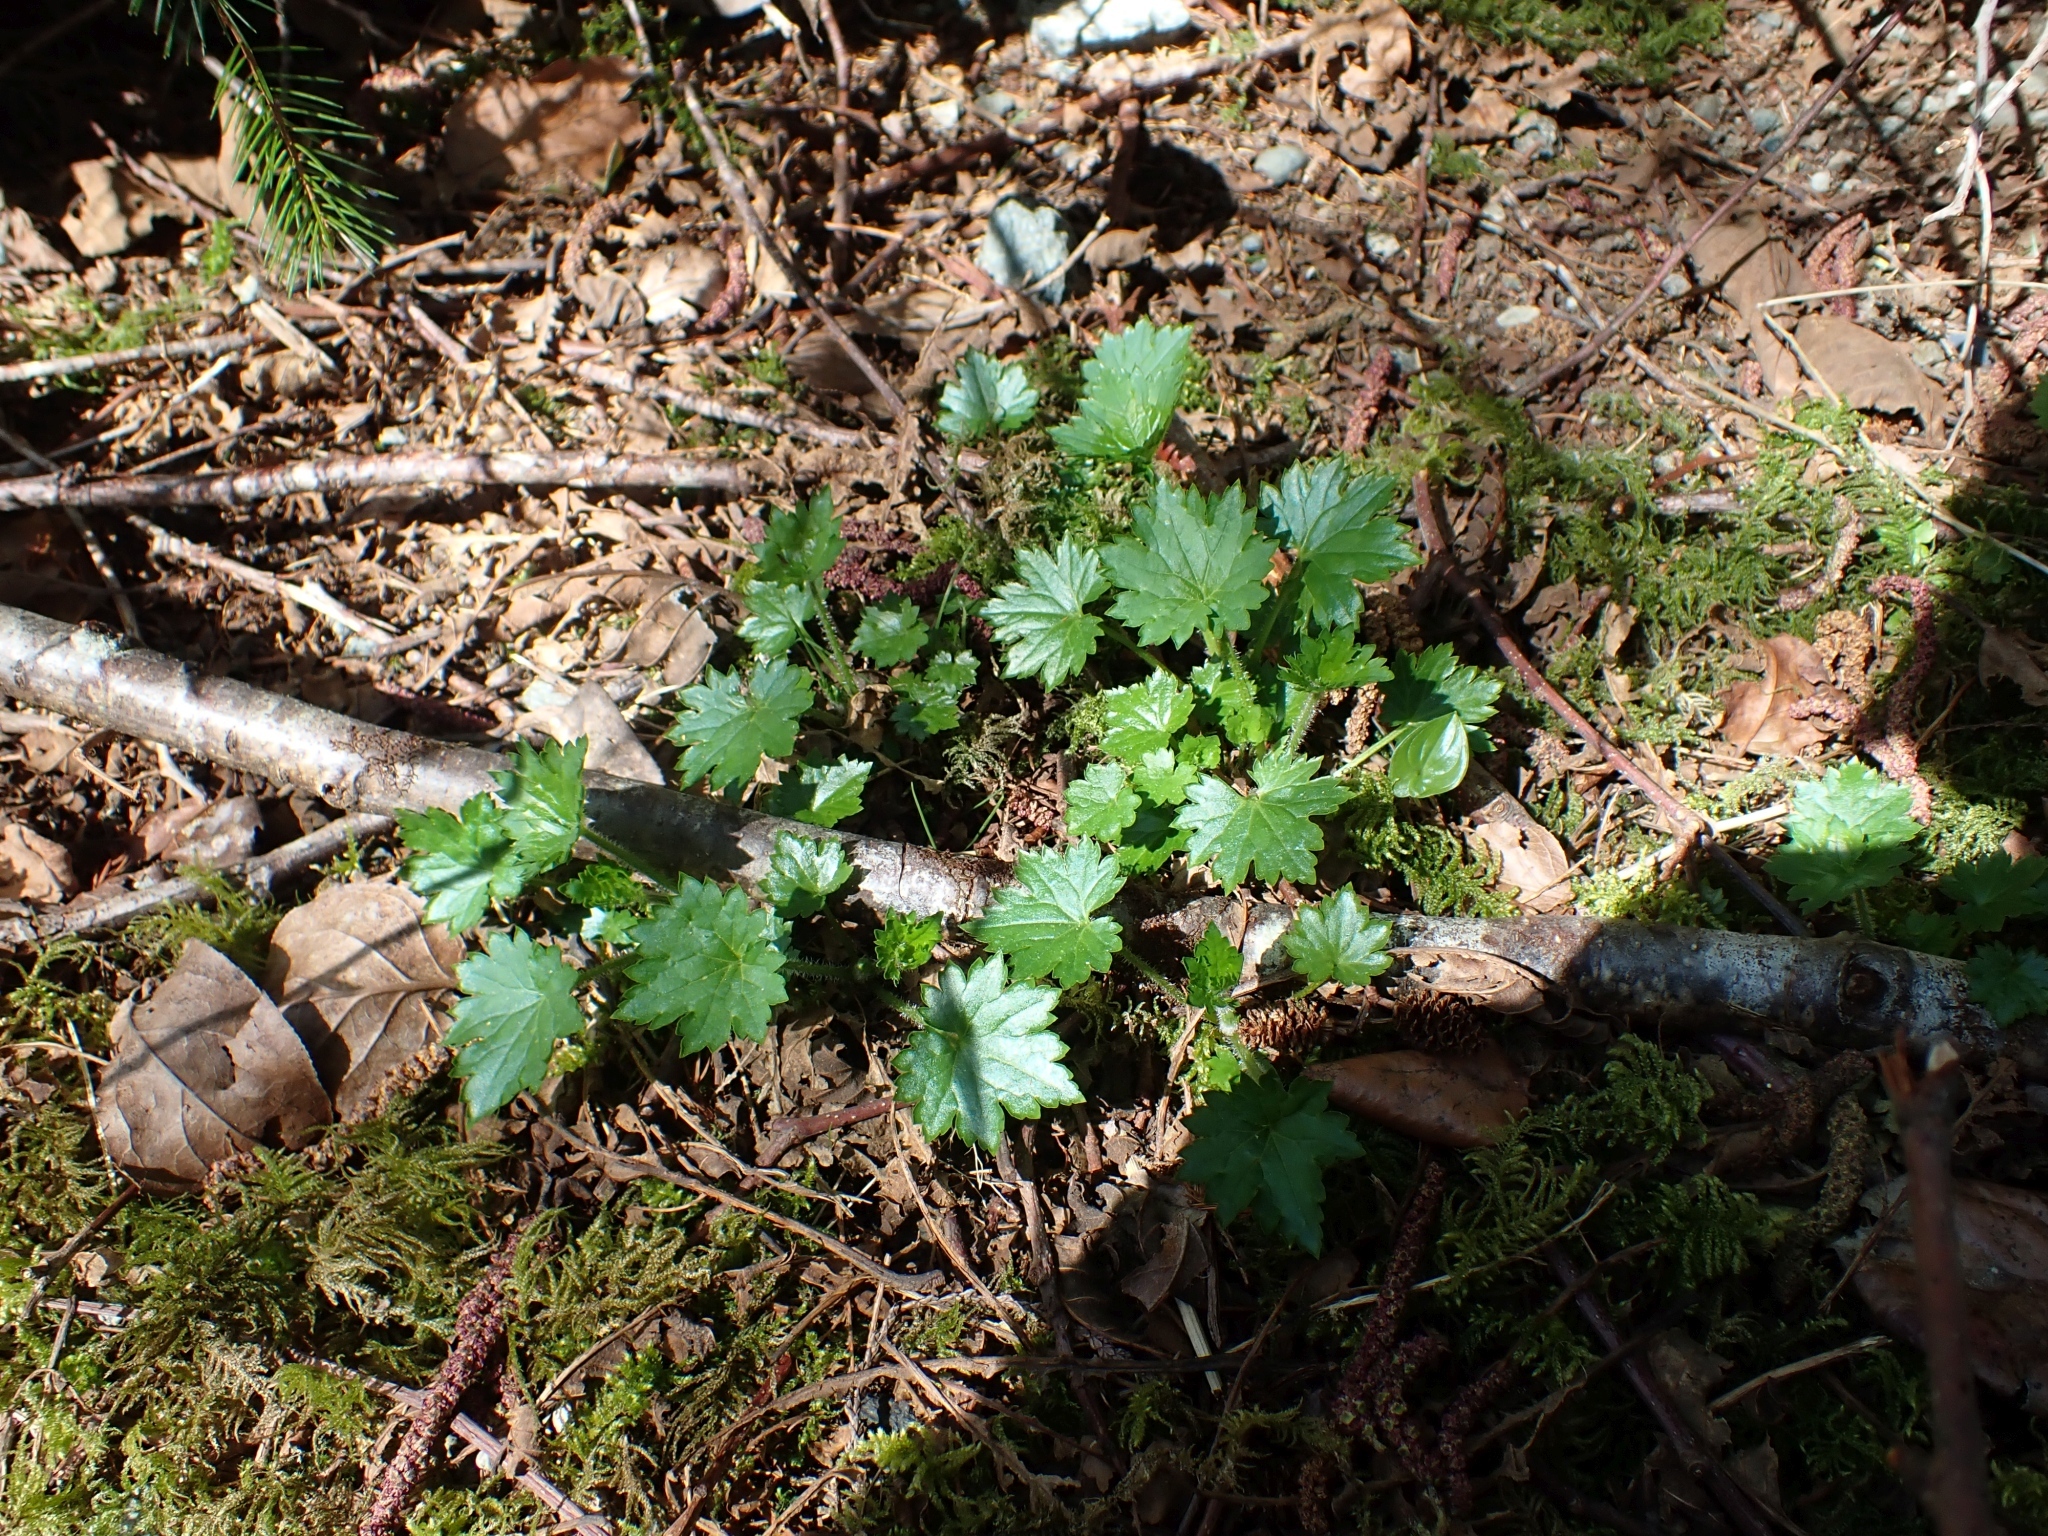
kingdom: Plantae
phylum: Tracheophyta
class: Magnoliopsida
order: Saxifragales
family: Saxifragaceae
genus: Boykinia
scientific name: Boykinia occidentalis
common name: Coast boykinia
